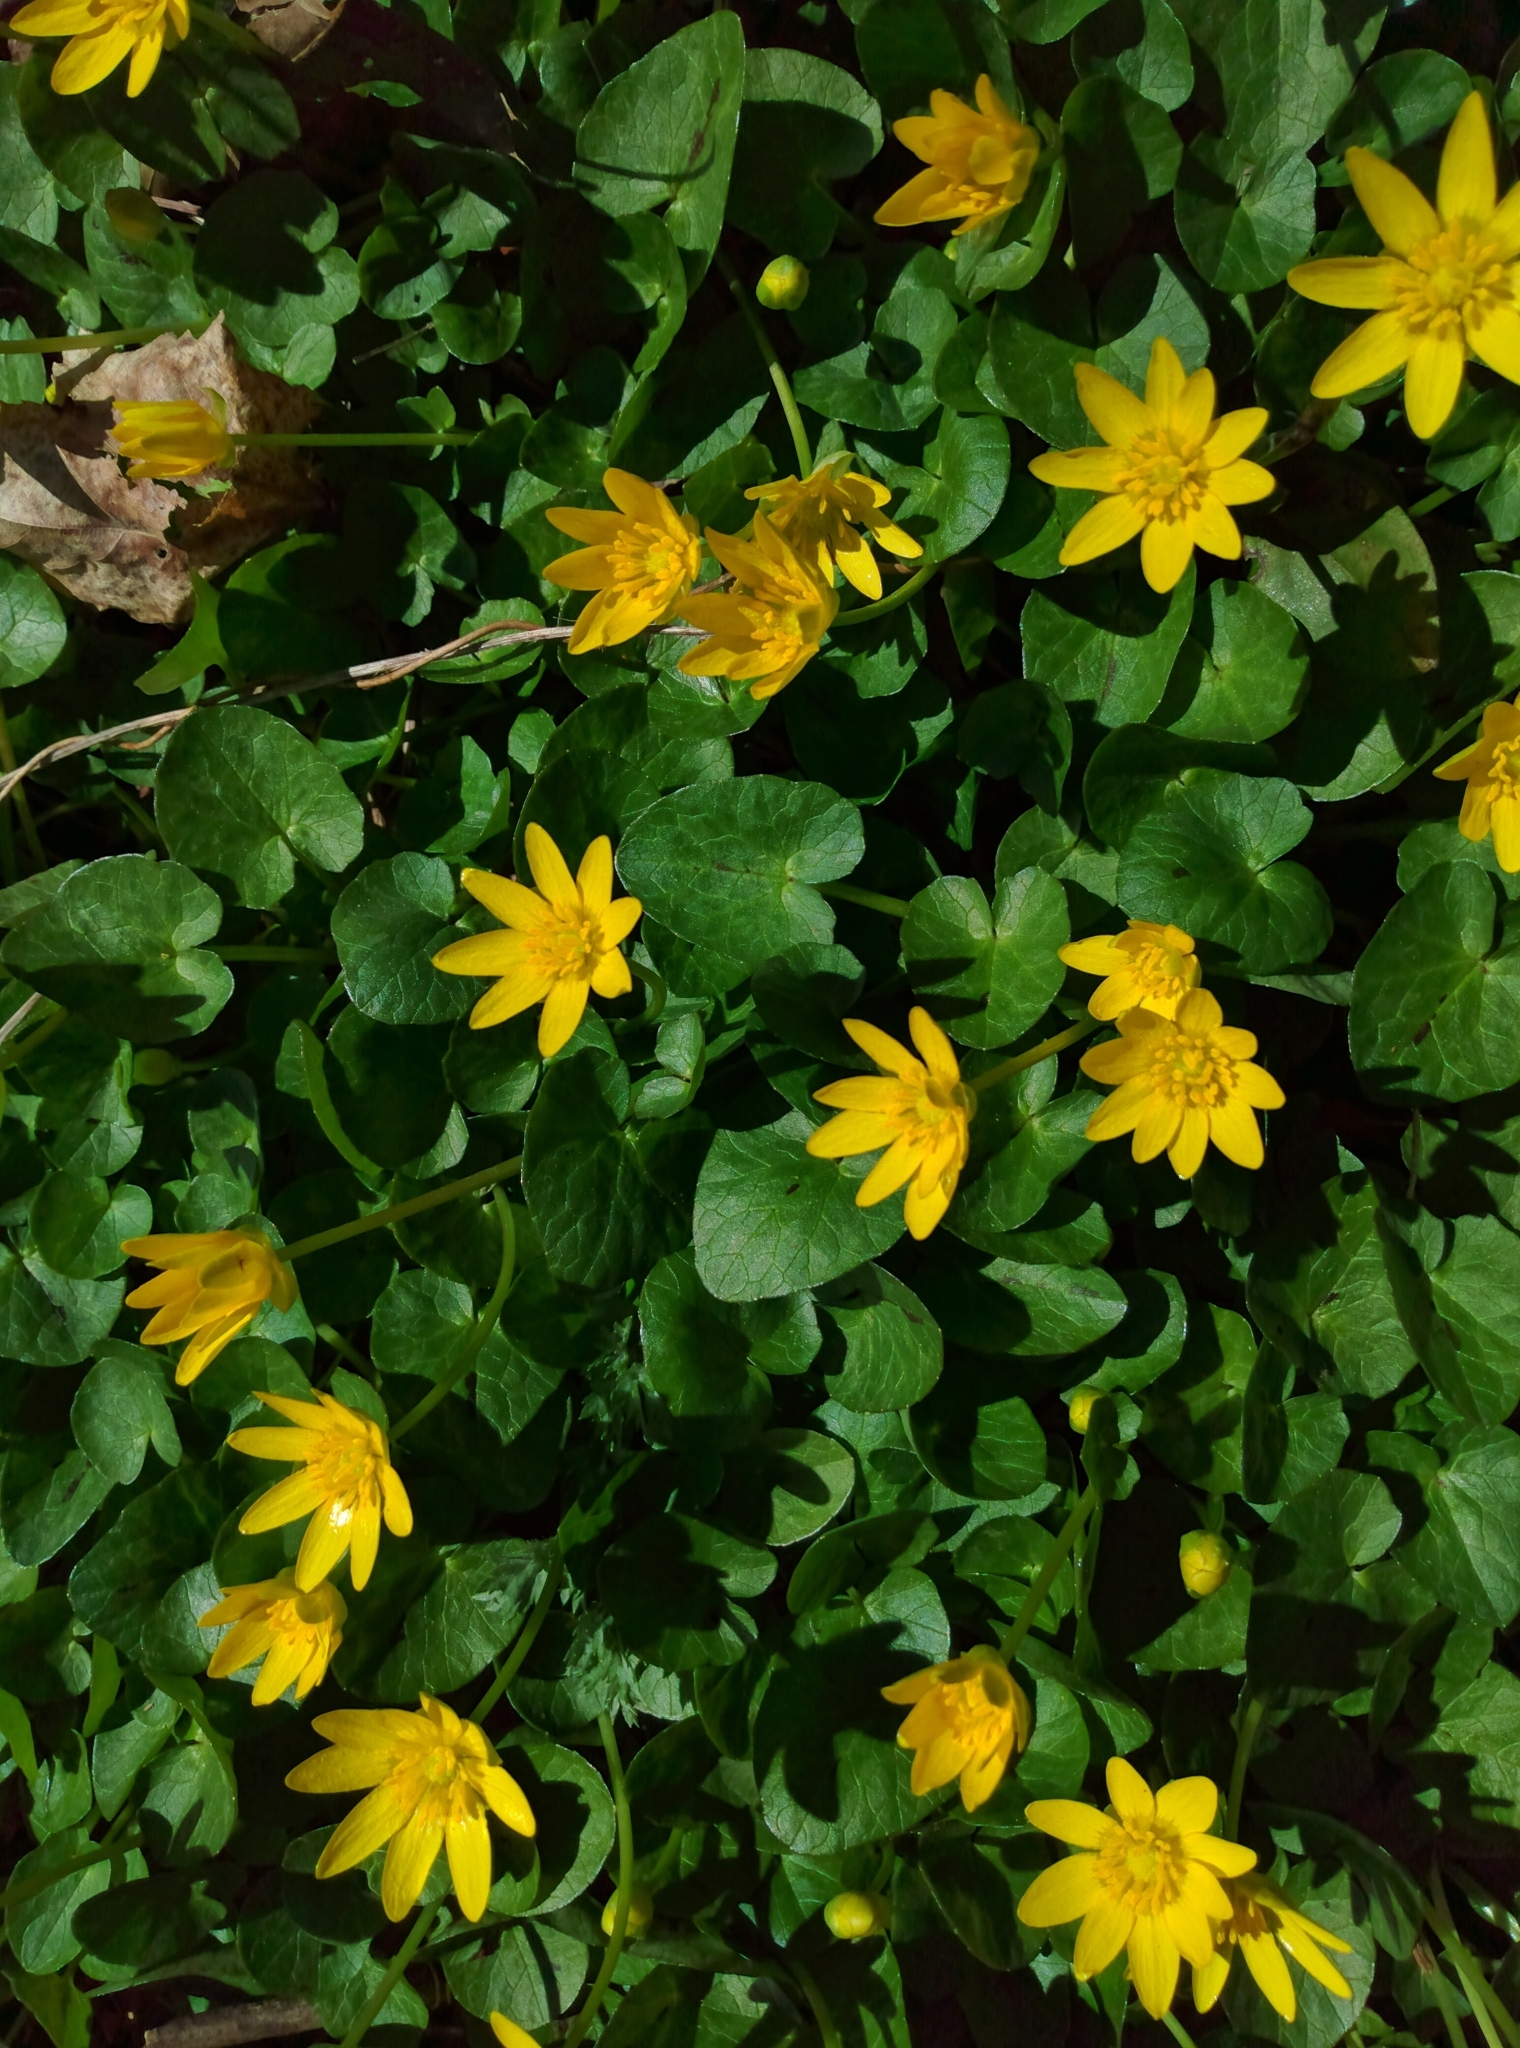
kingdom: Plantae
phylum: Tracheophyta
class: Magnoliopsida
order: Ranunculales
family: Ranunculaceae
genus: Ficaria
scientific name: Ficaria verna
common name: Lesser celandine
